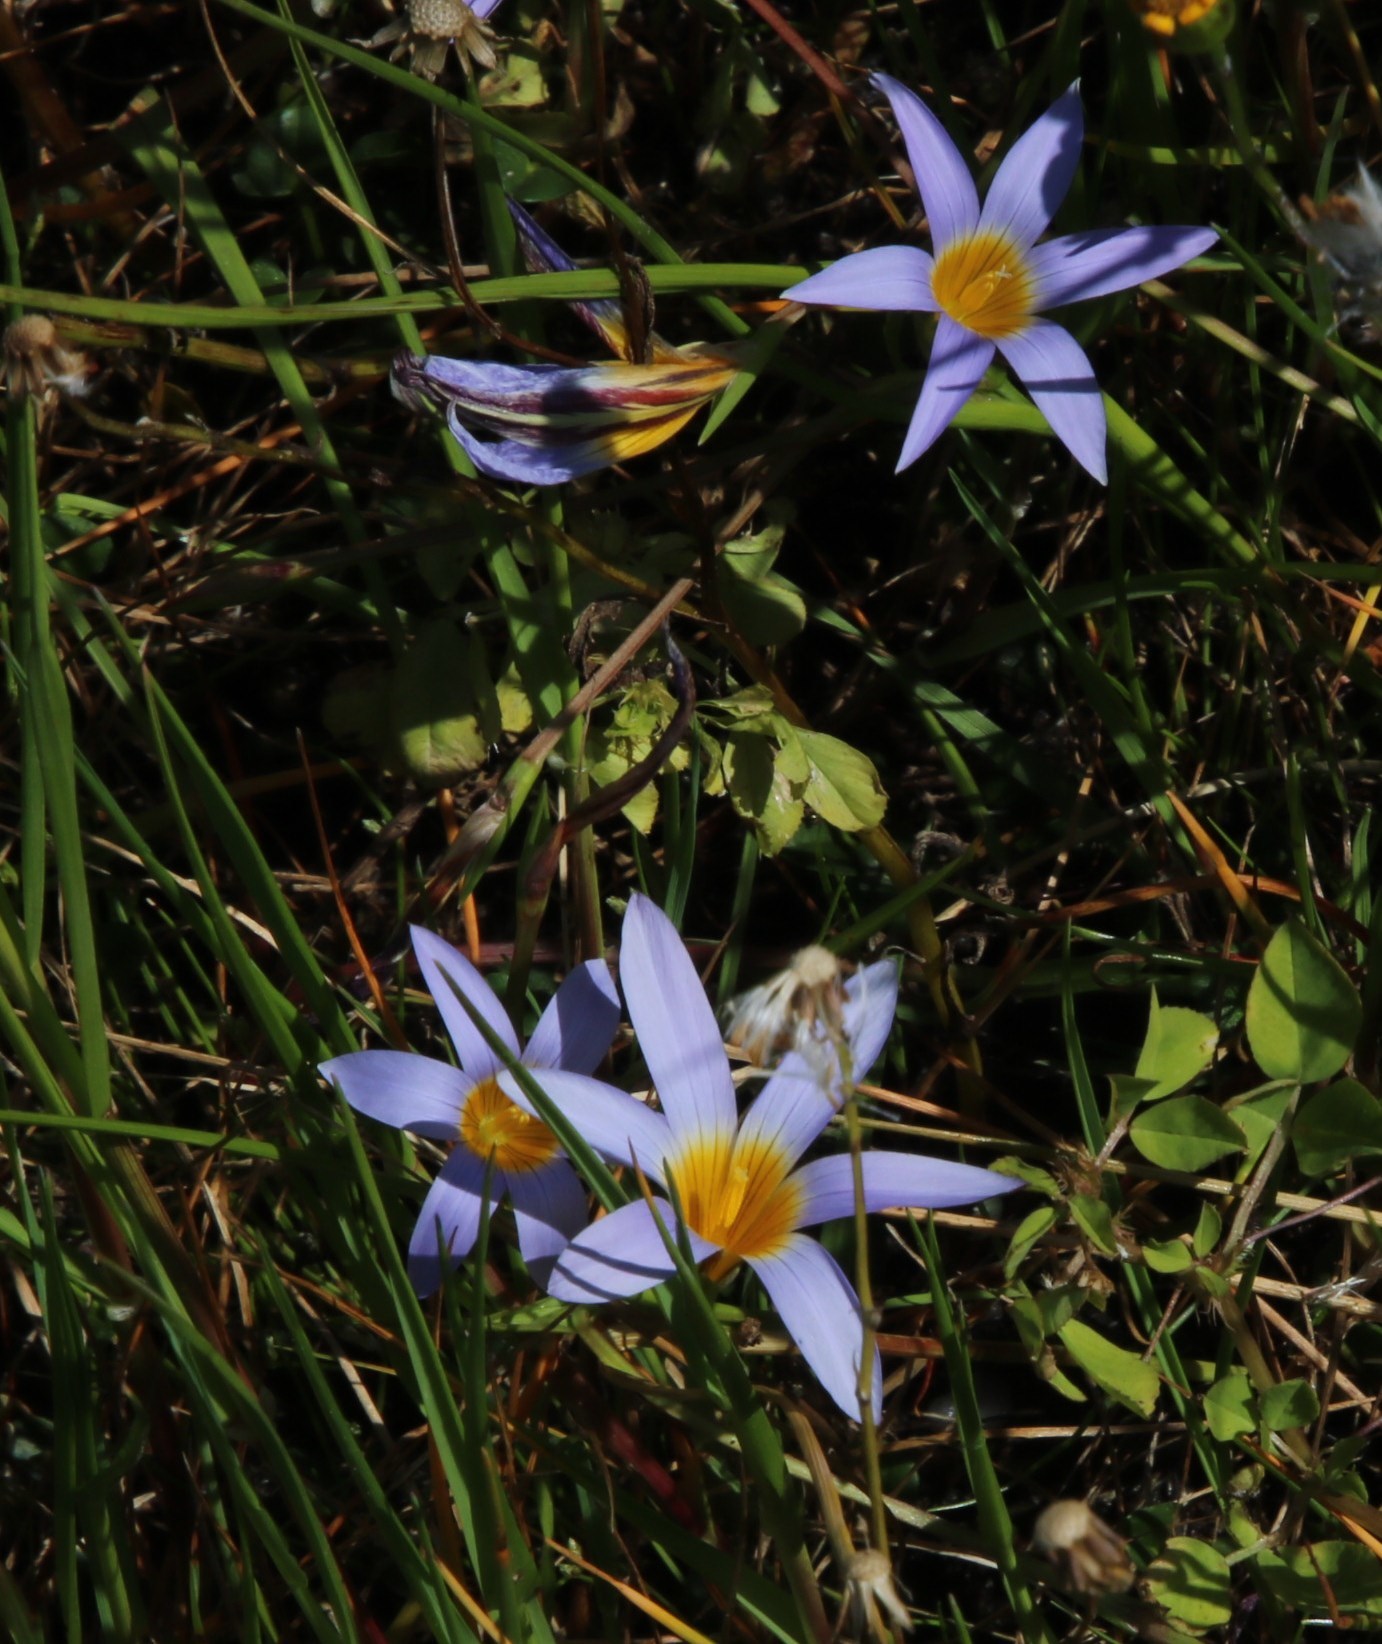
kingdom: Plantae
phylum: Tracheophyta
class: Liliopsida
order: Asparagales
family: Iridaceae
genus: Romulea
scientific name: Romulea tabularis
